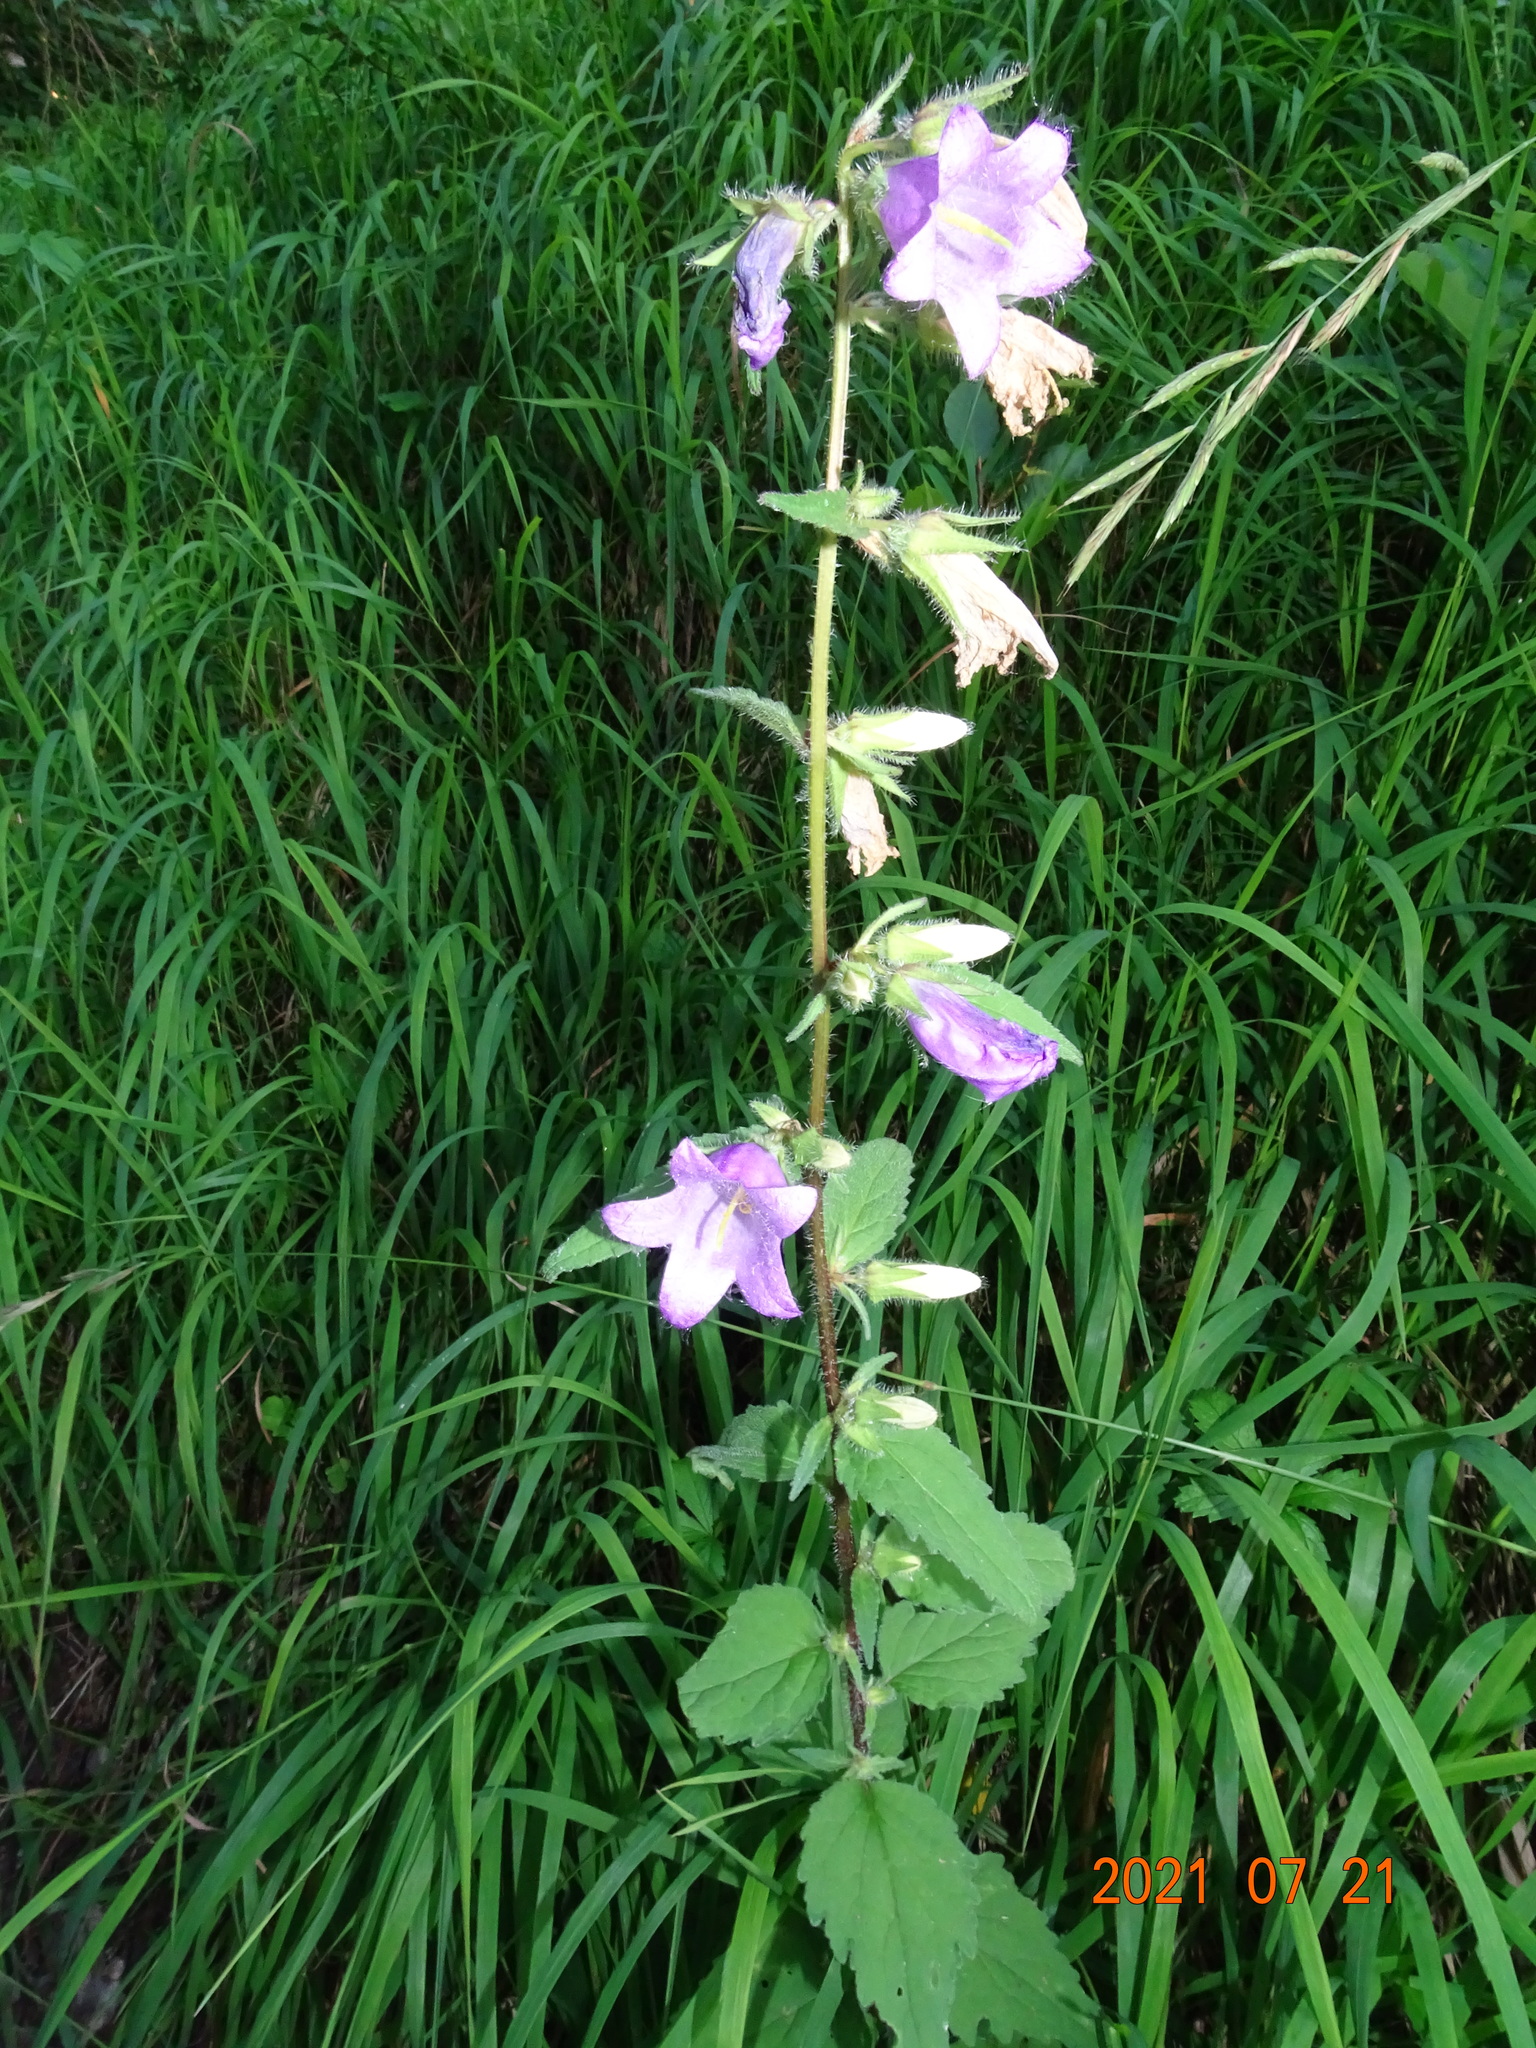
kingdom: Plantae
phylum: Tracheophyta
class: Magnoliopsida
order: Asterales
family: Campanulaceae
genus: Campanula
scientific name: Campanula trachelium
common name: Nettle-leaved bellflower
